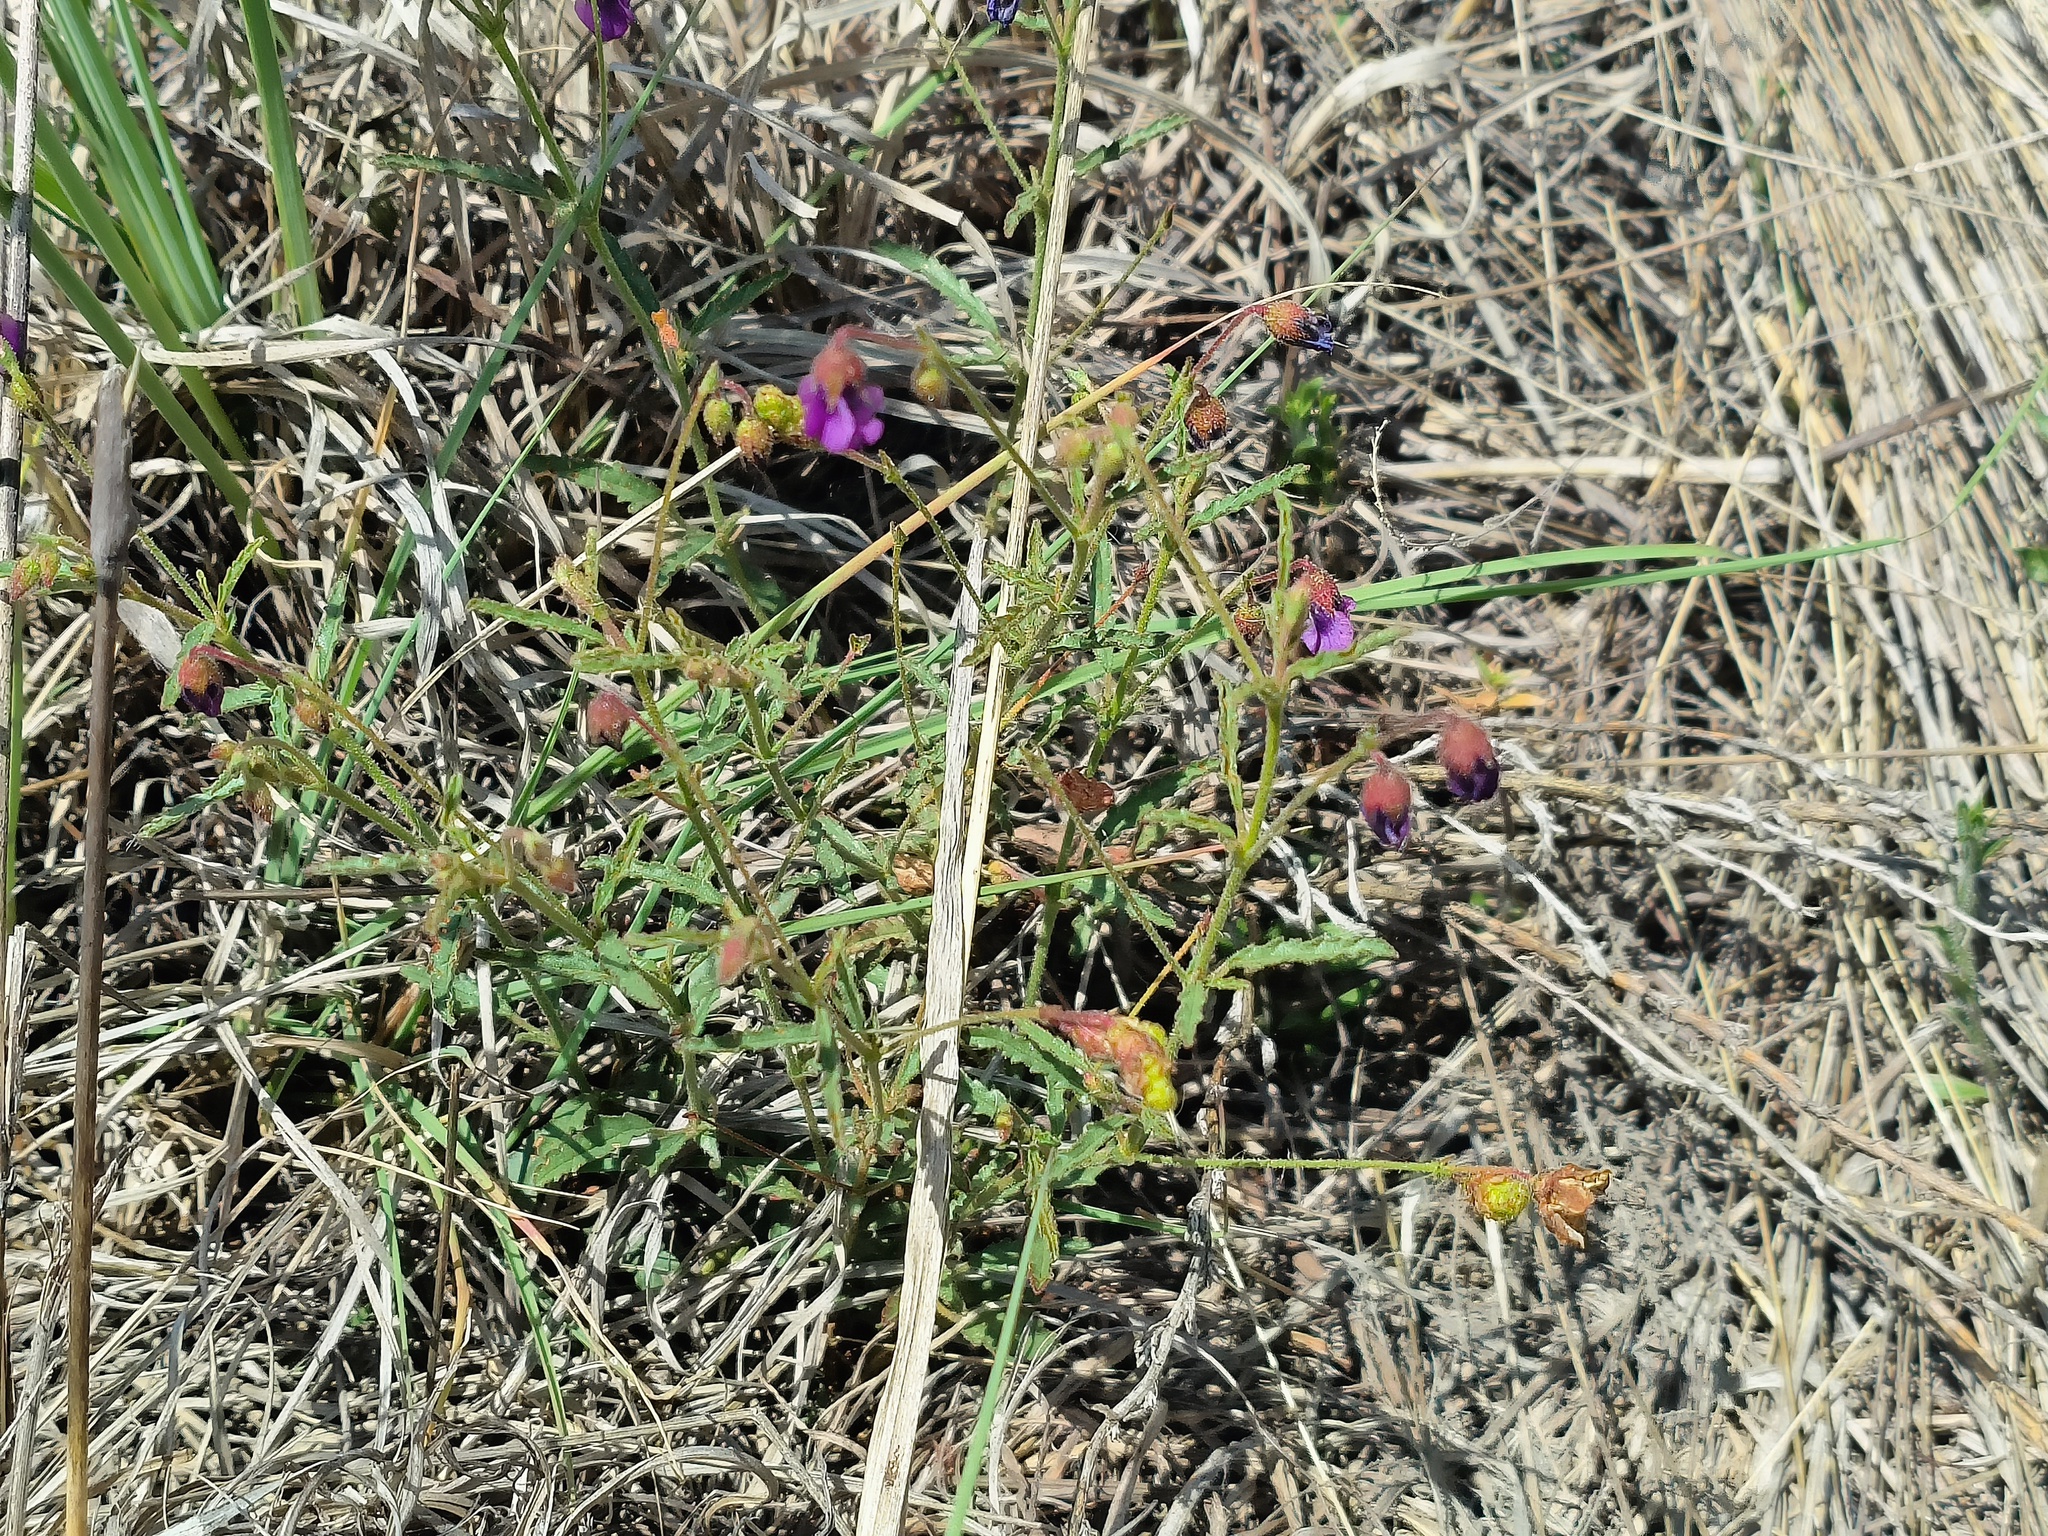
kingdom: Plantae
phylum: Tracheophyta
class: Magnoliopsida
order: Malvales
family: Malvaceae
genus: Hermannia
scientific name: Hermannia coccocarpa
